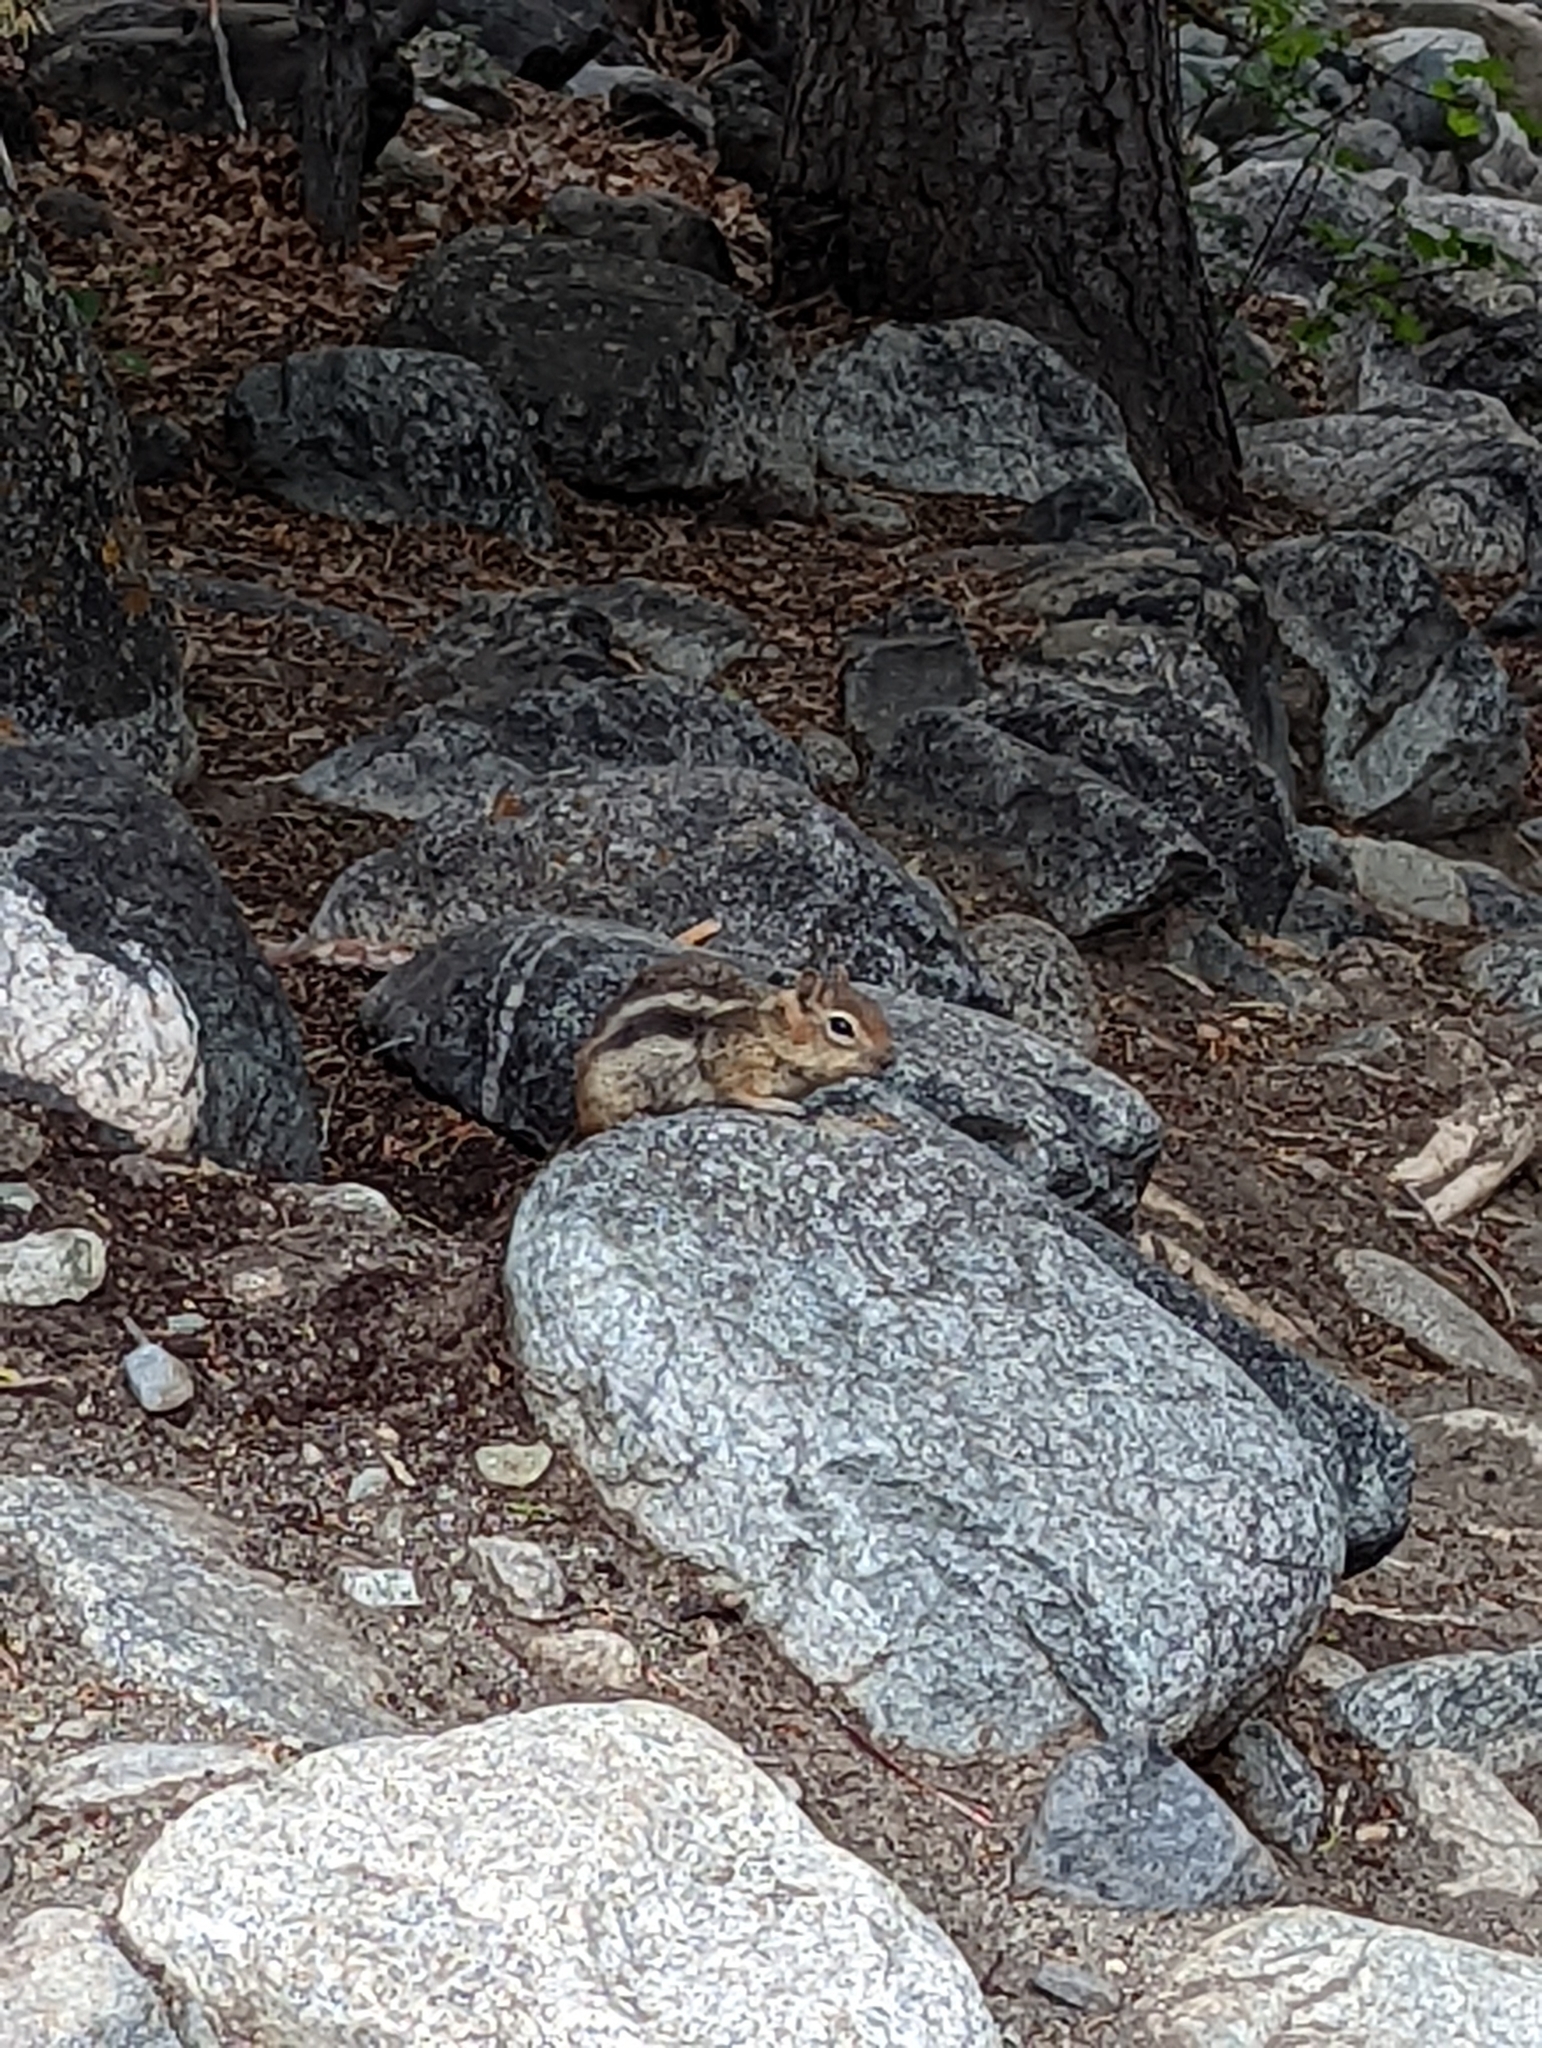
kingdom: Animalia
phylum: Chordata
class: Mammalia
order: Rodentia
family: Sciuridae
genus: Callospermophilus
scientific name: Callospermophilus lateralis
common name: Golden-mantled ground squirrel
